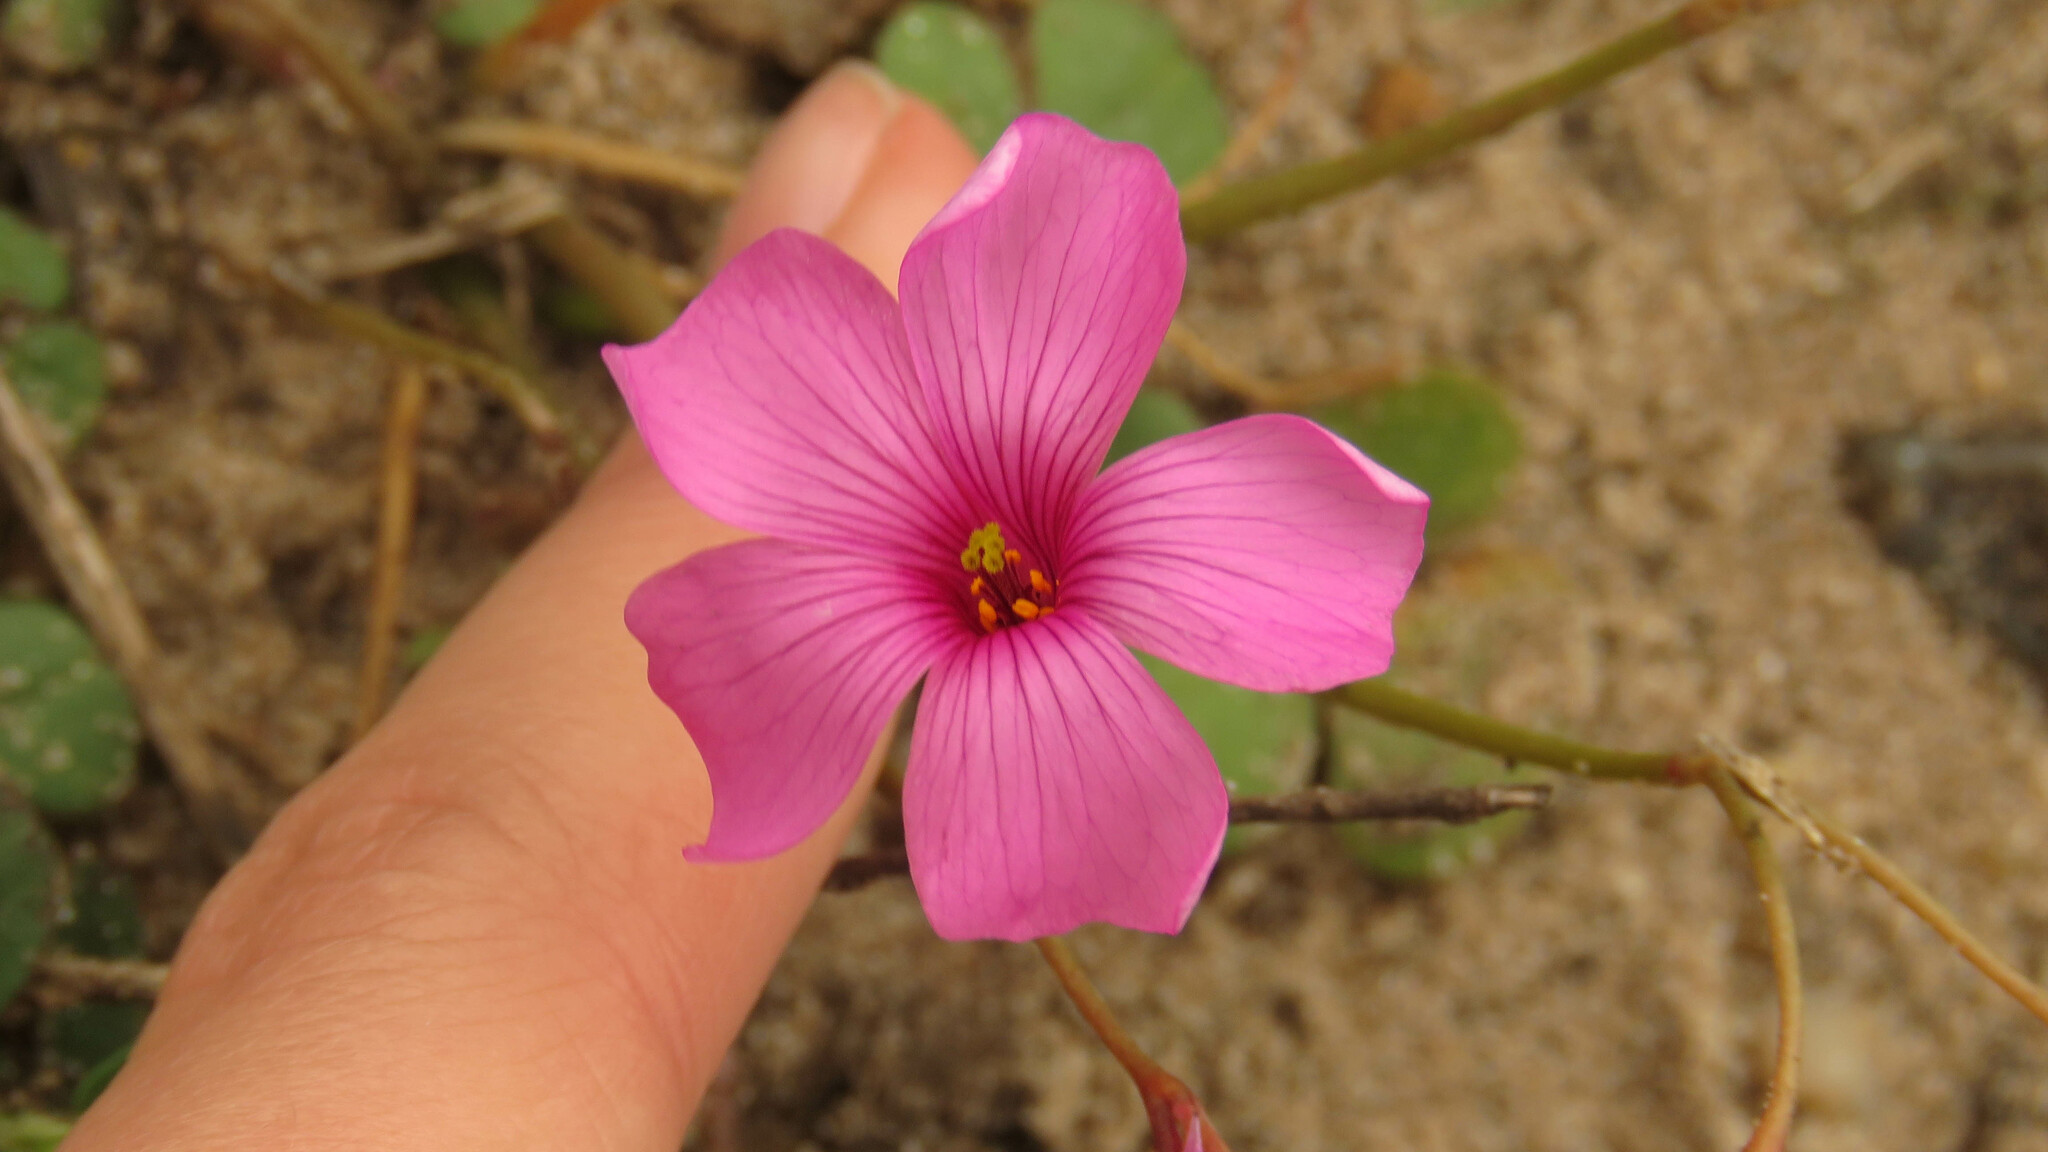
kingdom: Plantae
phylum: Tracheophyta
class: Magnoliopsida
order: Oxalidales
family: Oxalidaceae
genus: Oxalis
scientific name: Oxalis articulata
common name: Pink-sorrel
